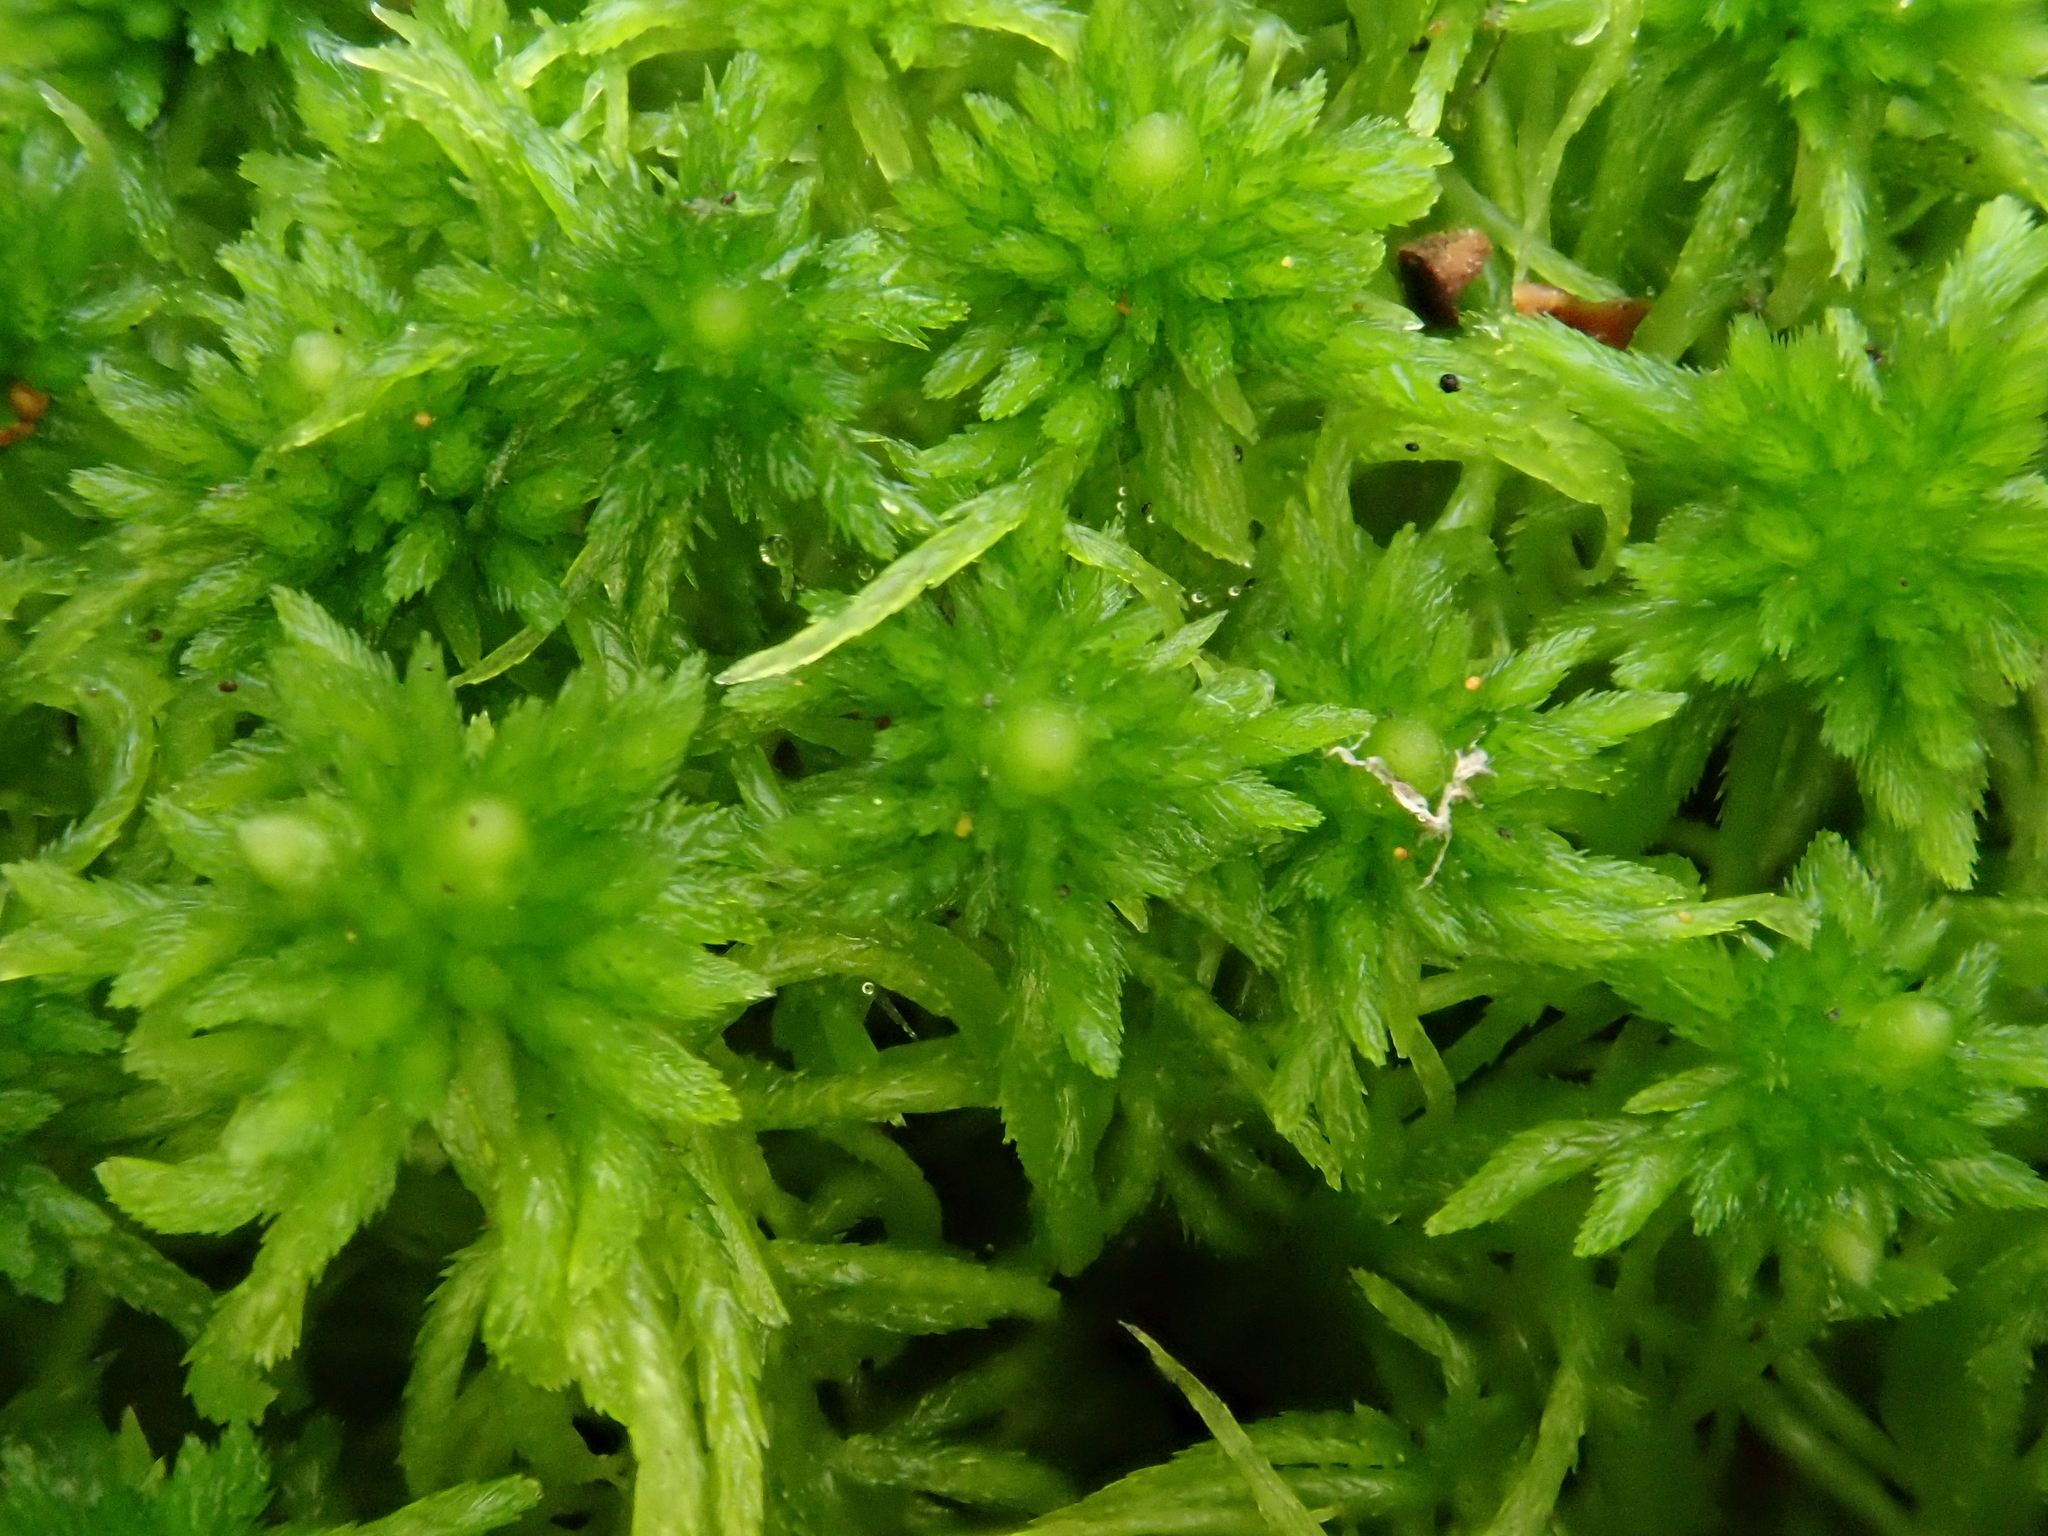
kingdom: Plantae
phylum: Bryophyta
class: Sphagnopsida
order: Sphagnales
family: Sphagnaceae
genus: Sphagnum
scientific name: Sphagnum fimbriatum
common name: Fringed peat moss
